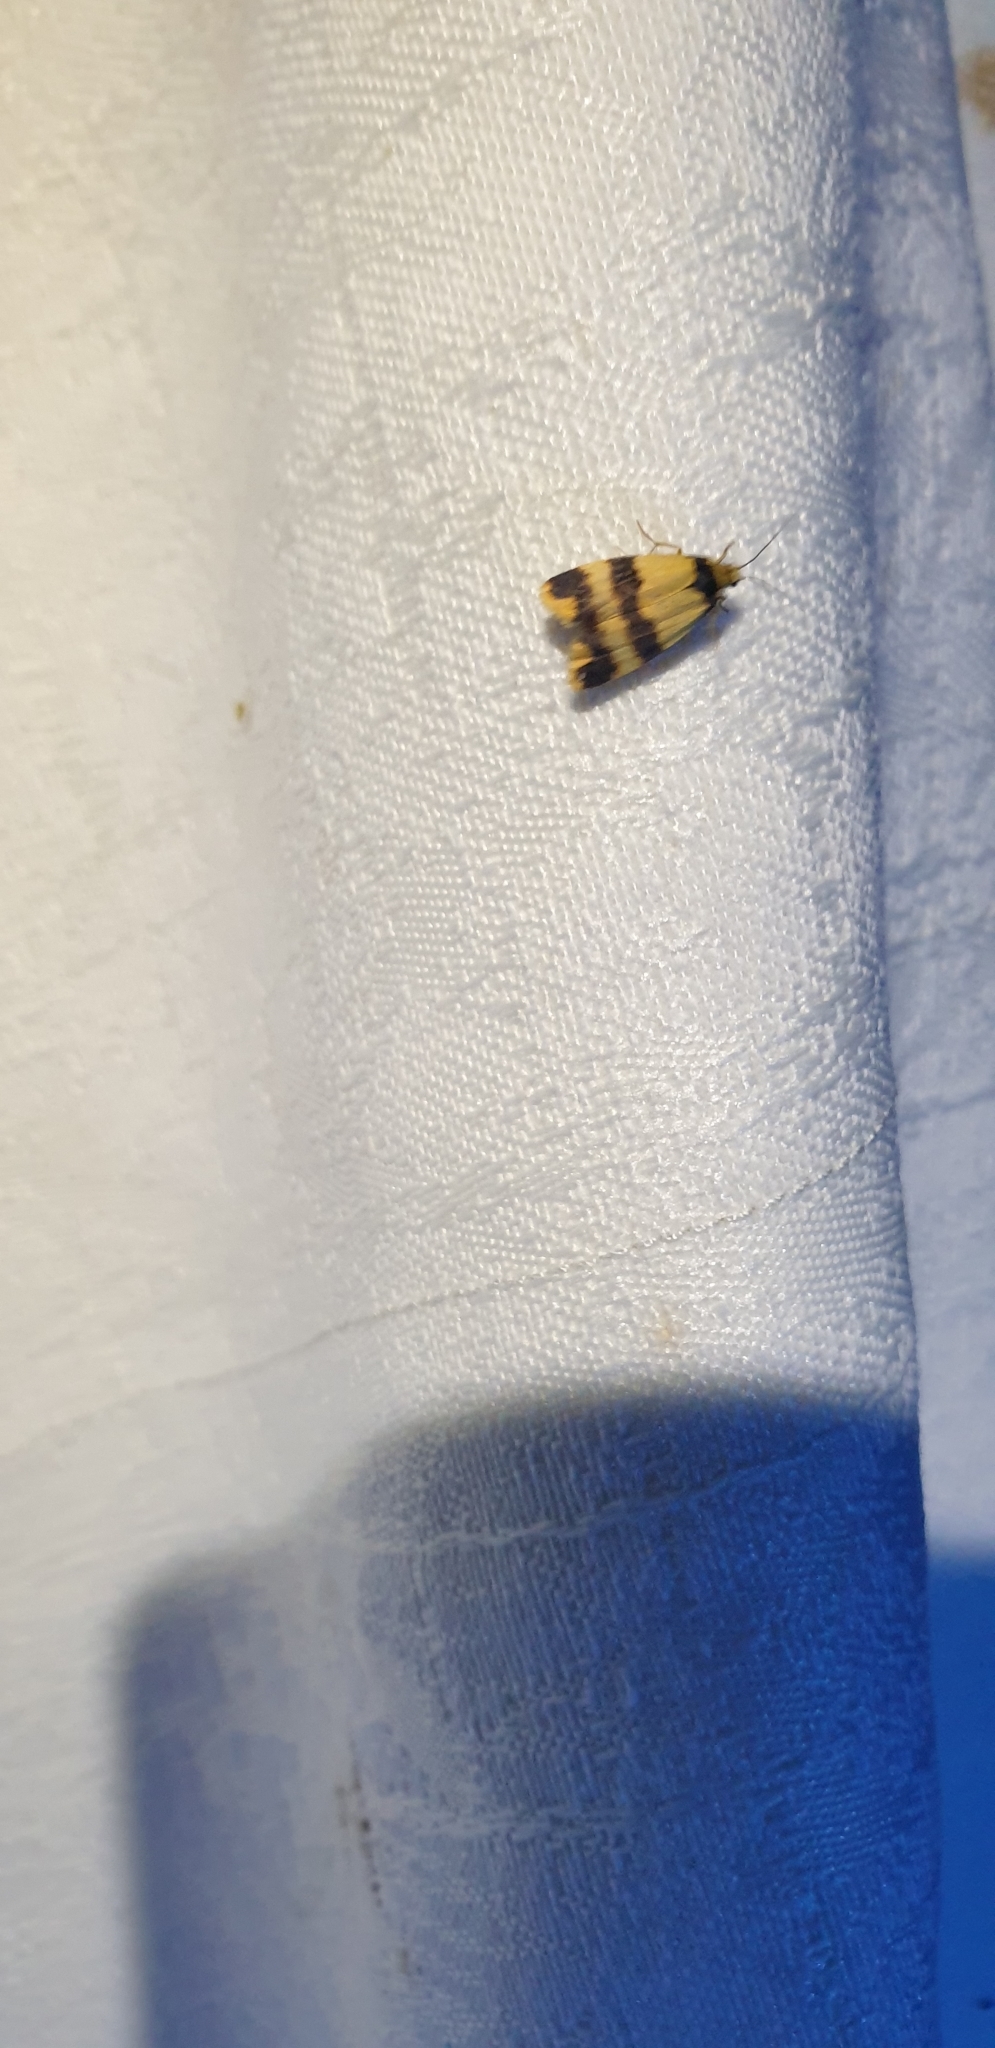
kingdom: Animalia
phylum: Arthropoda
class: Insecta
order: Lepidoptera
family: Erebidae
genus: Stenoscaptia
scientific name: Stenoscaptia venusta
